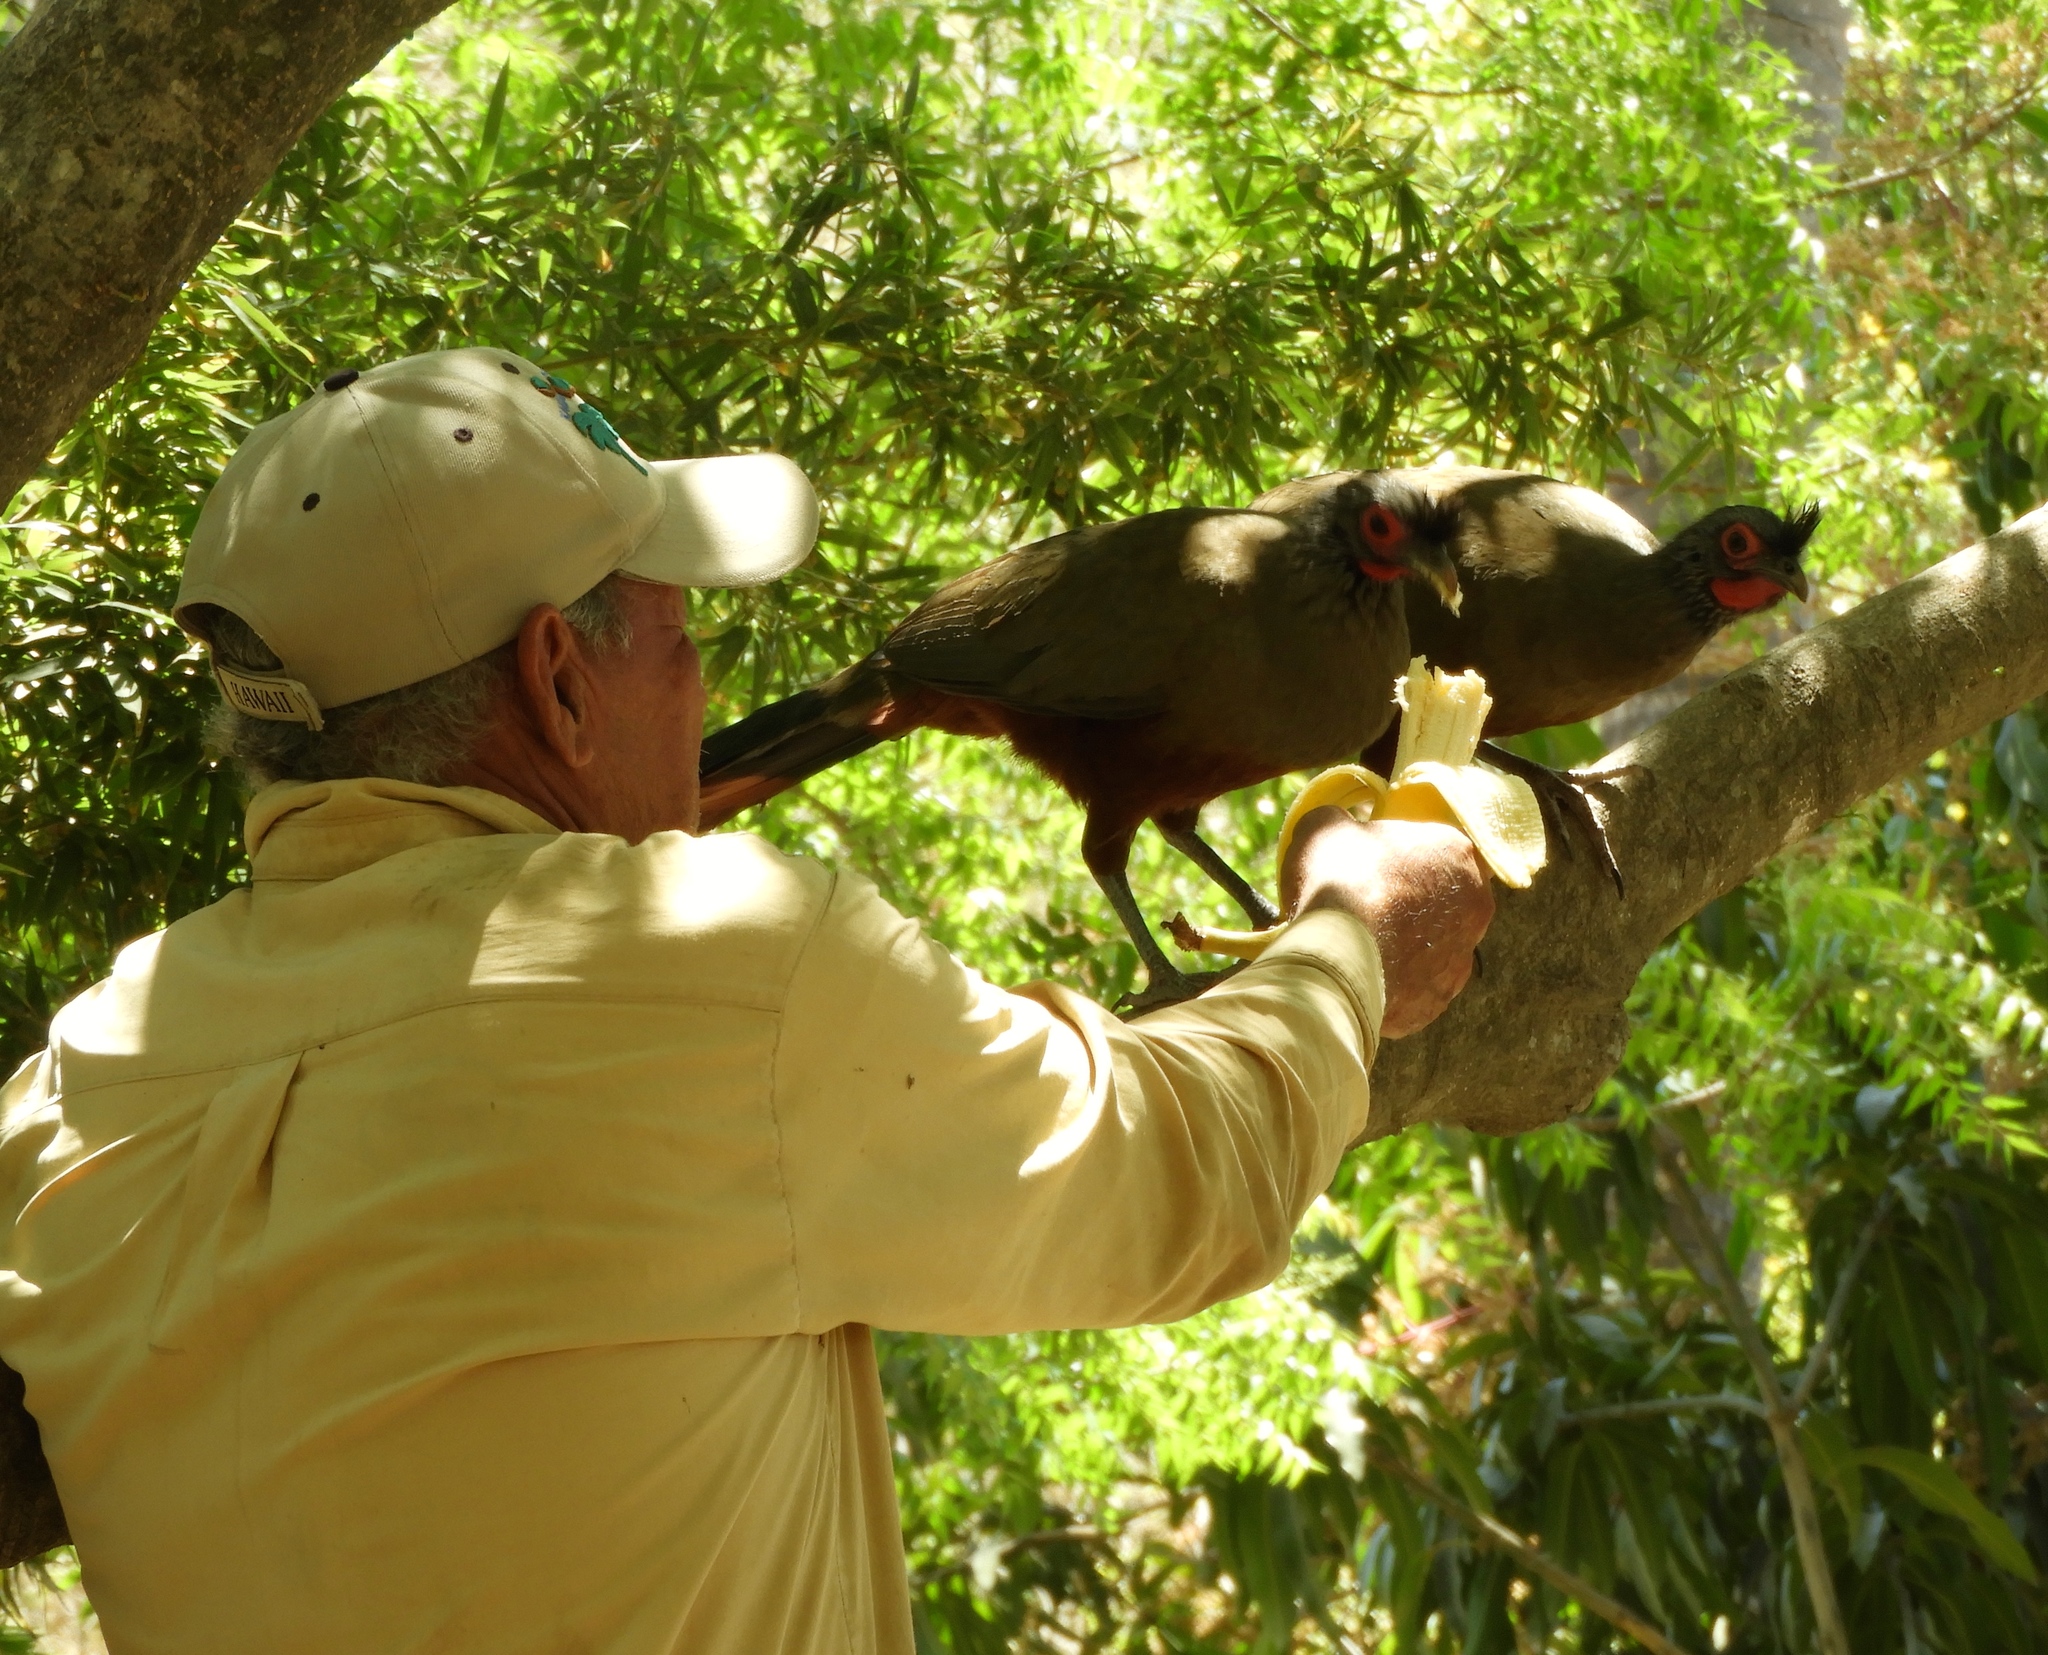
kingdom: Animalia
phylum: Chordata
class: Aves
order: Galliformes
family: Cracidae
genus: Ortalis
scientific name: Ortalis wagleri
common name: Rufous-bellied chachalaca
